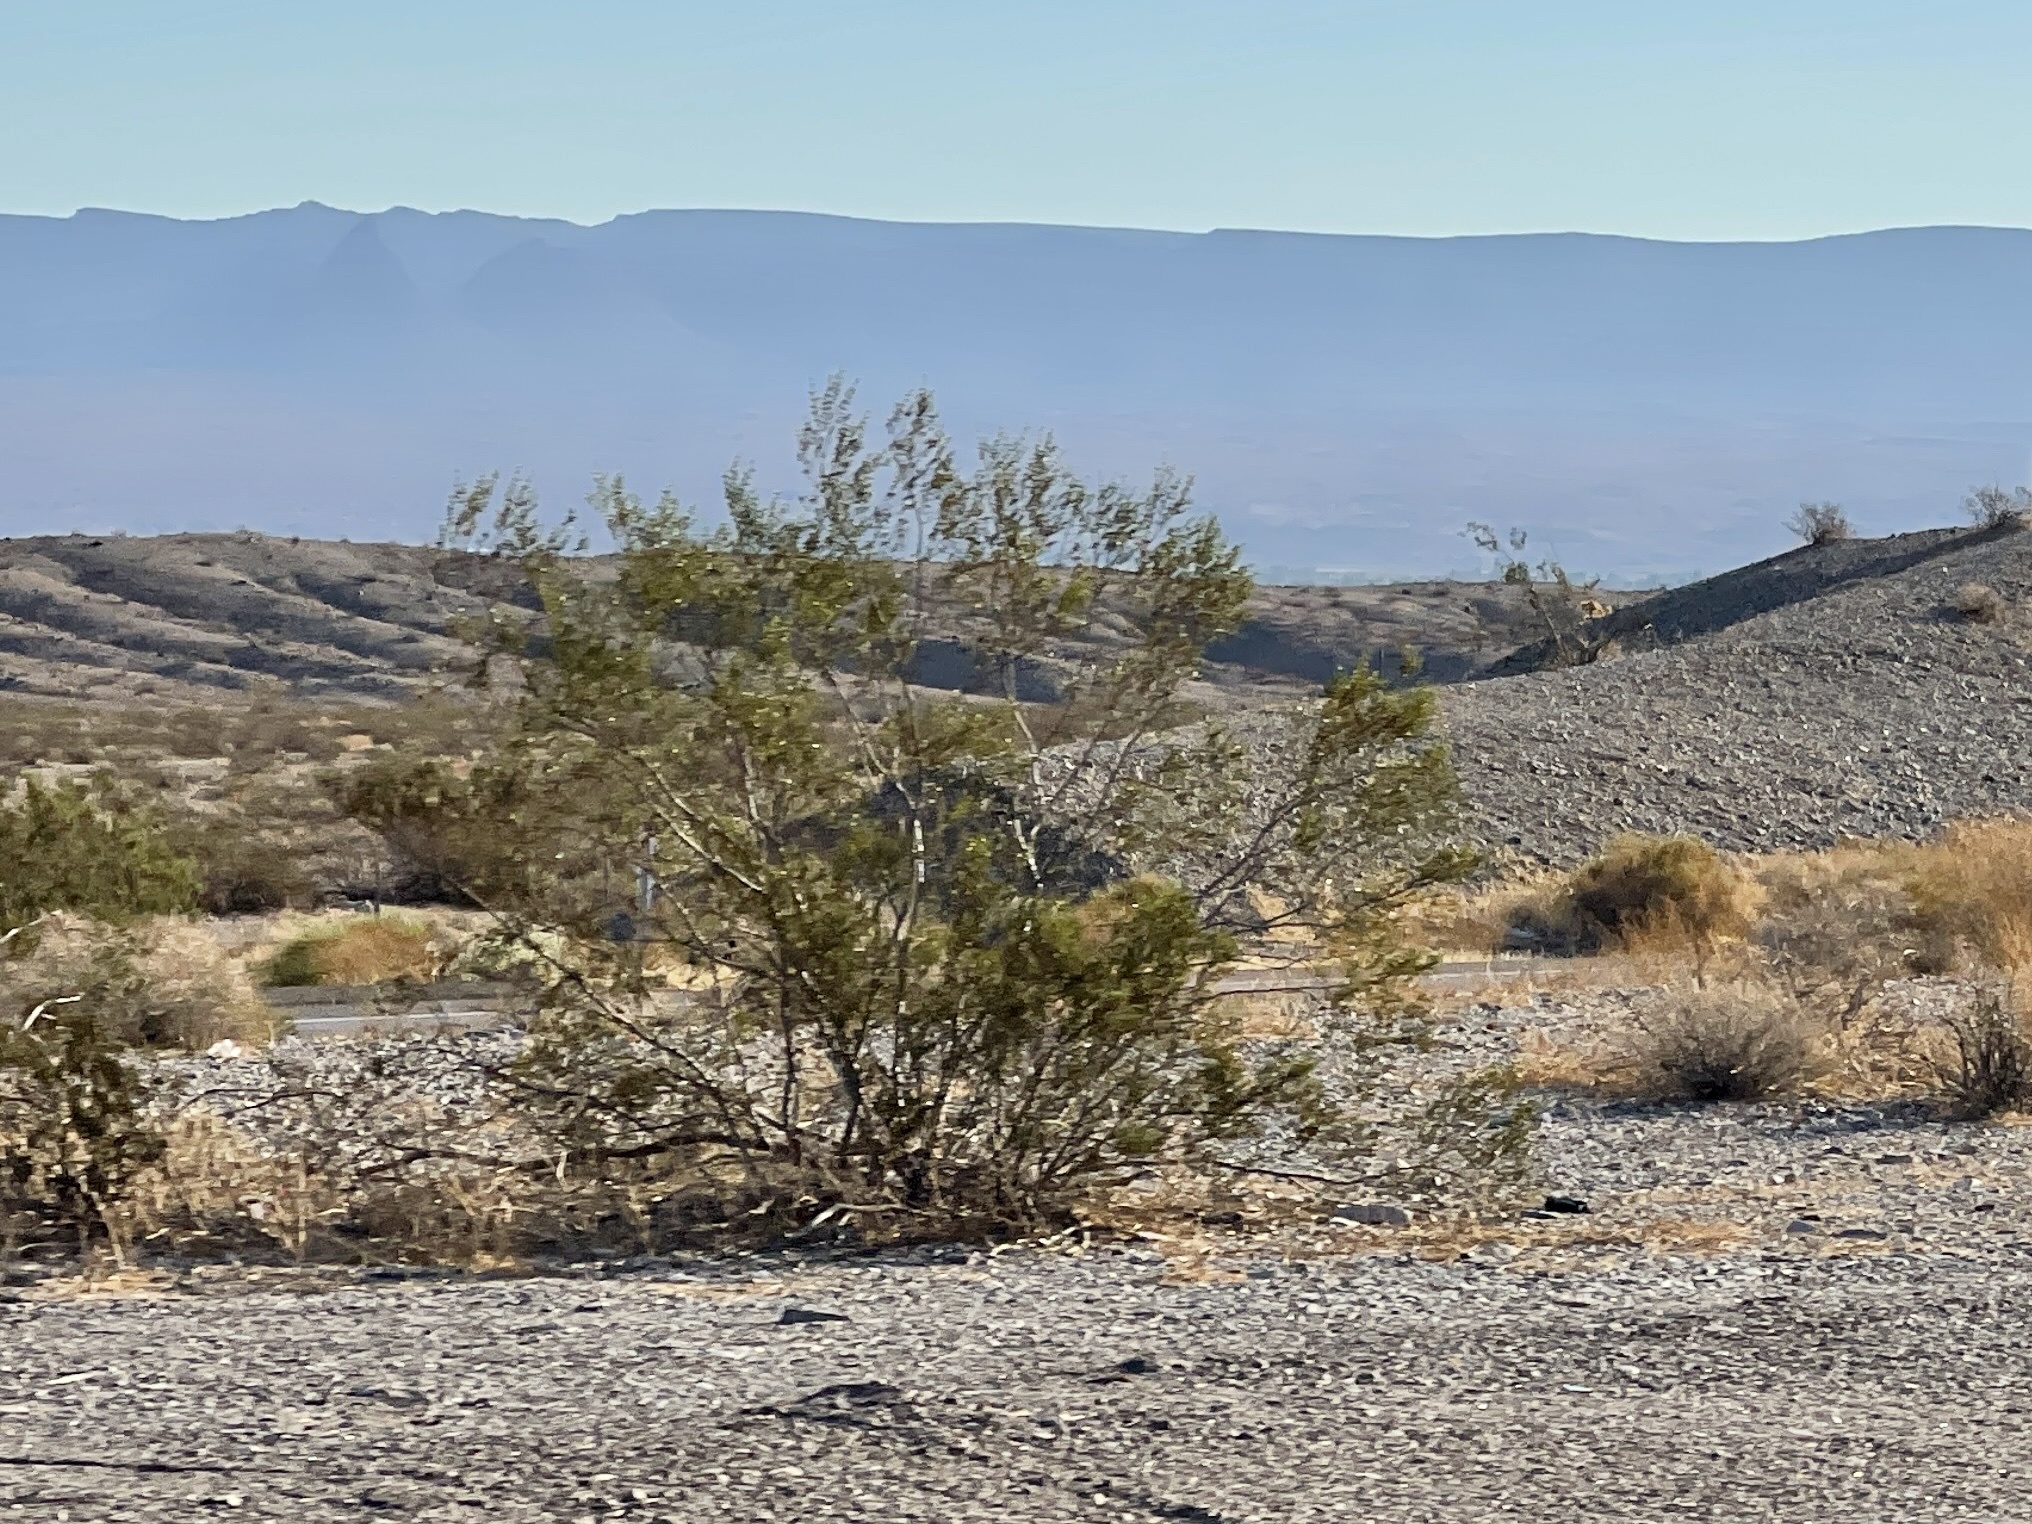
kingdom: Plantae
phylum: Tracheophyta
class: Magnoliopsida
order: Zygophyllales
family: Zygophyllaceae
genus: Larrea
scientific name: Larrea tridentata
